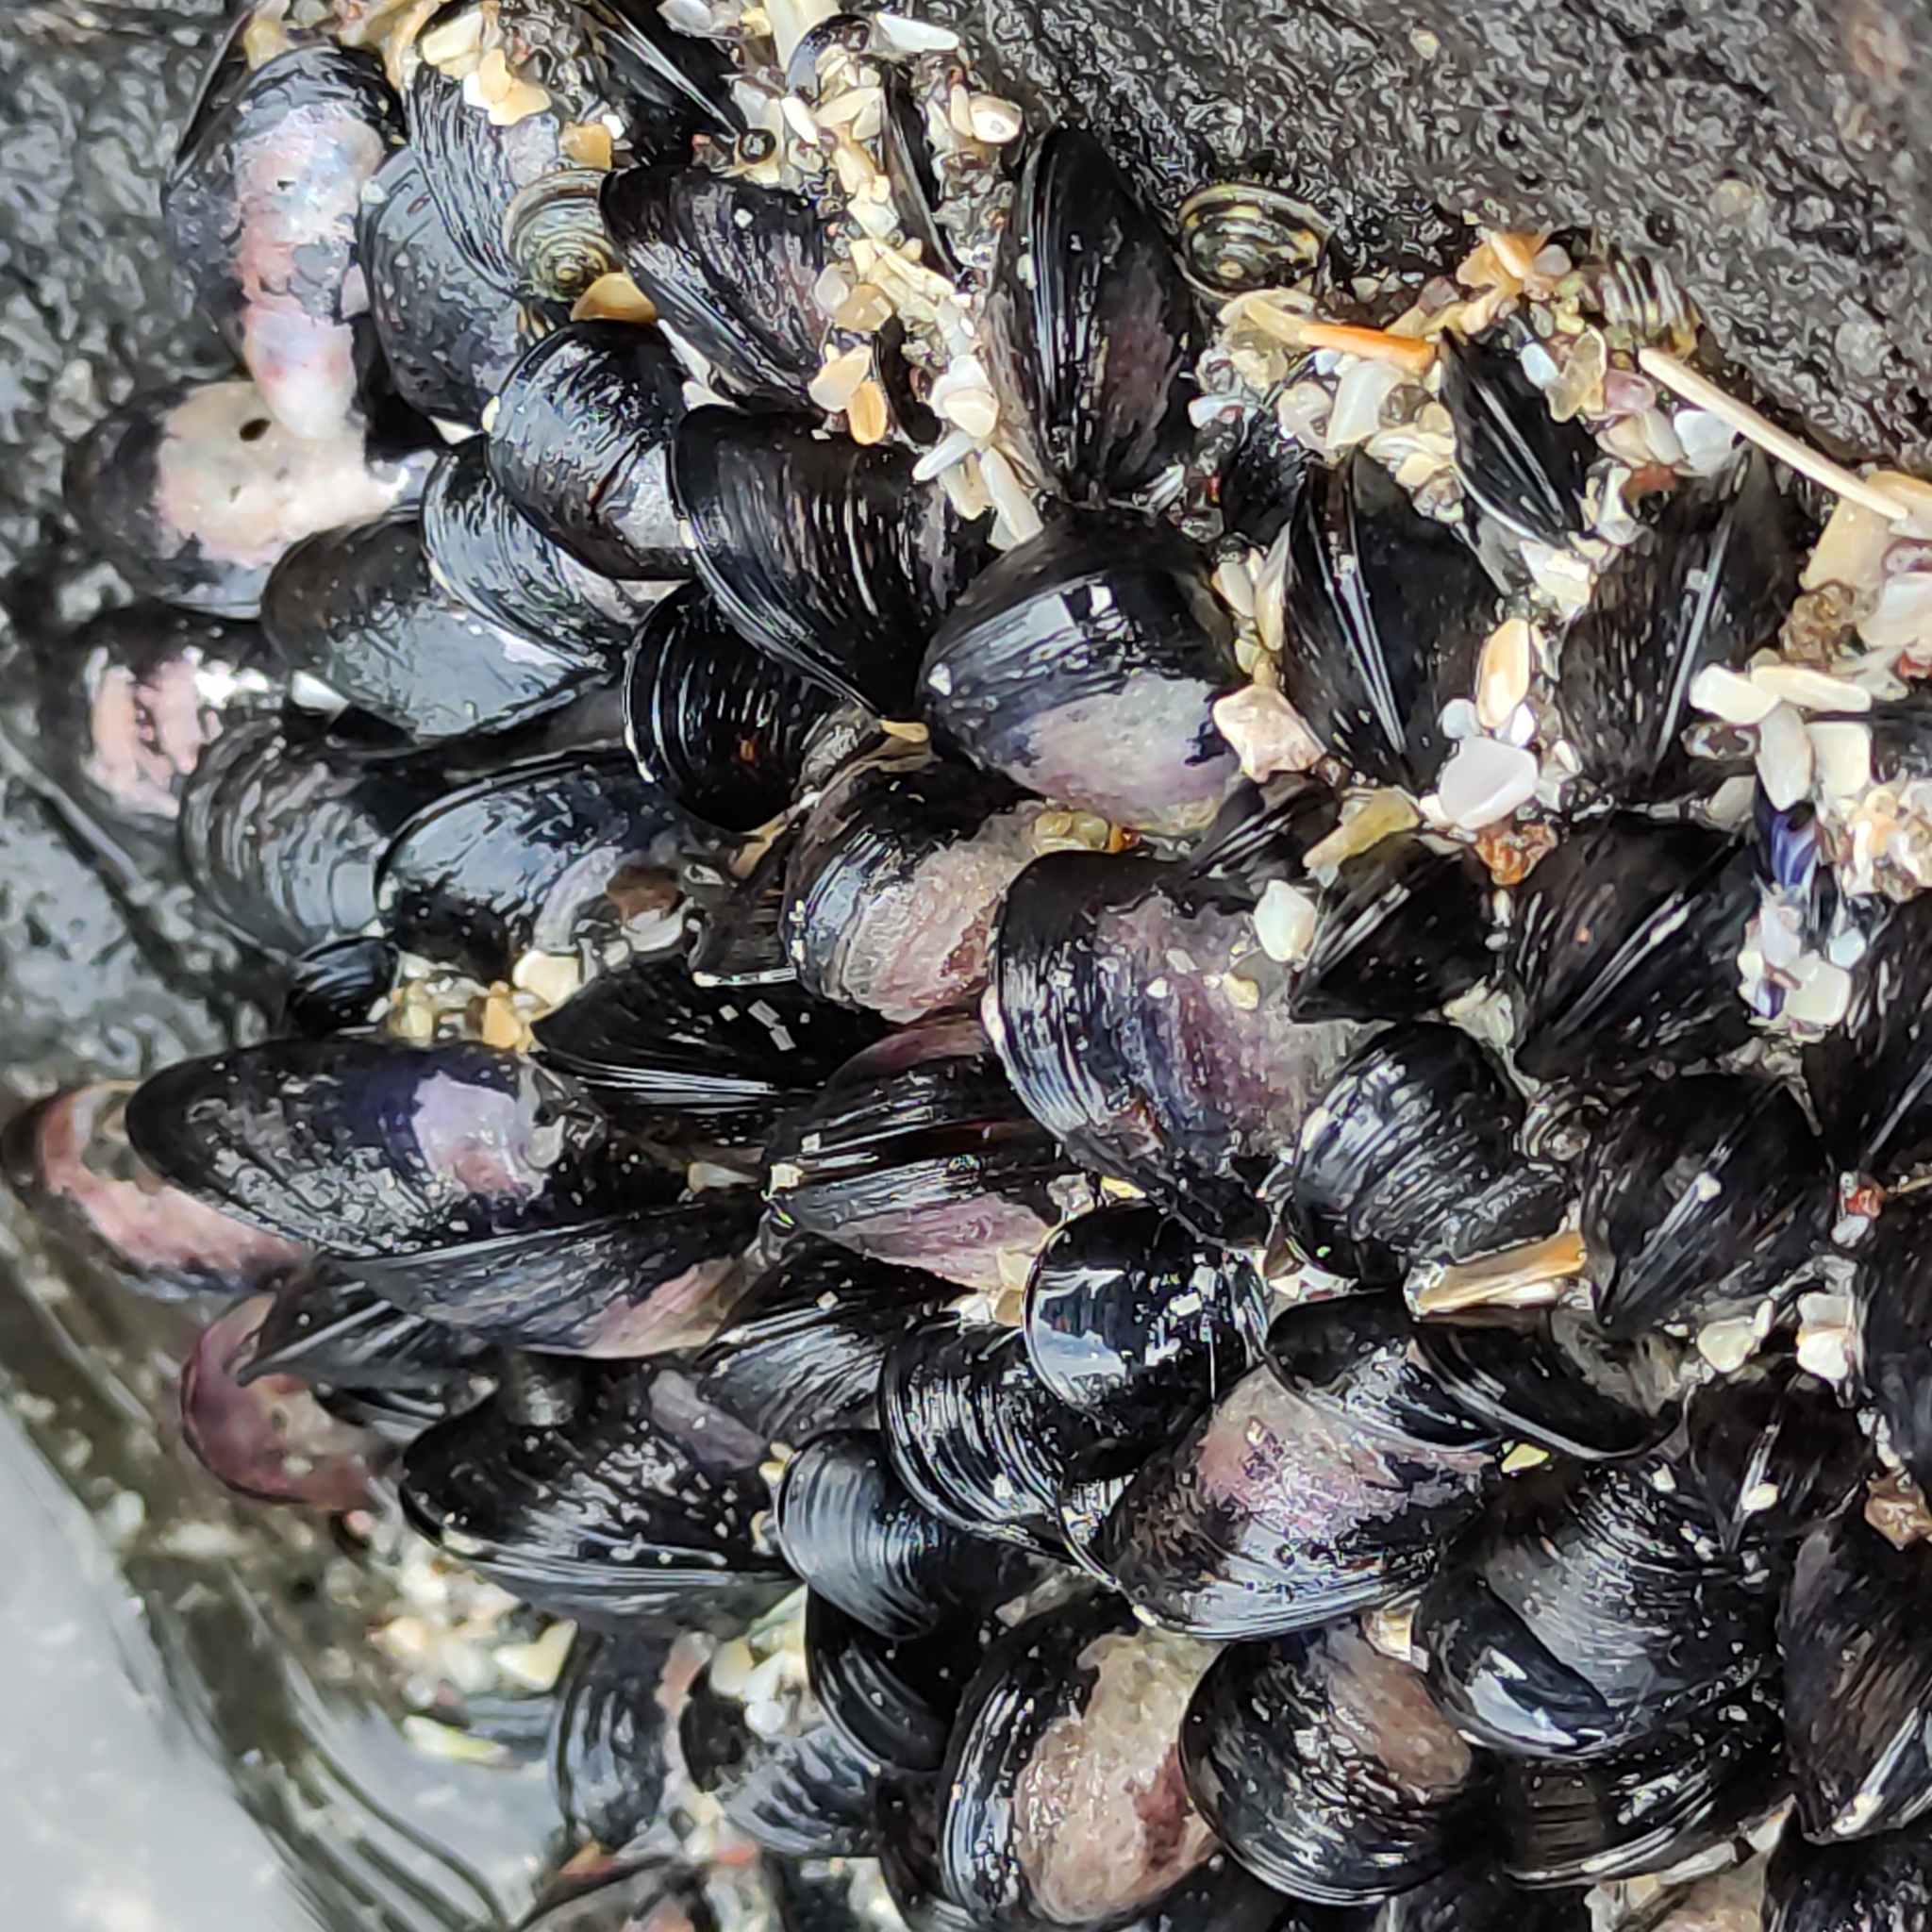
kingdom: Animalia
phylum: Mollusca
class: Bivalvia
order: Mytilida
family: Mytilidae
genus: Xenostrobus
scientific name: Xenostrobus neozelanicus
